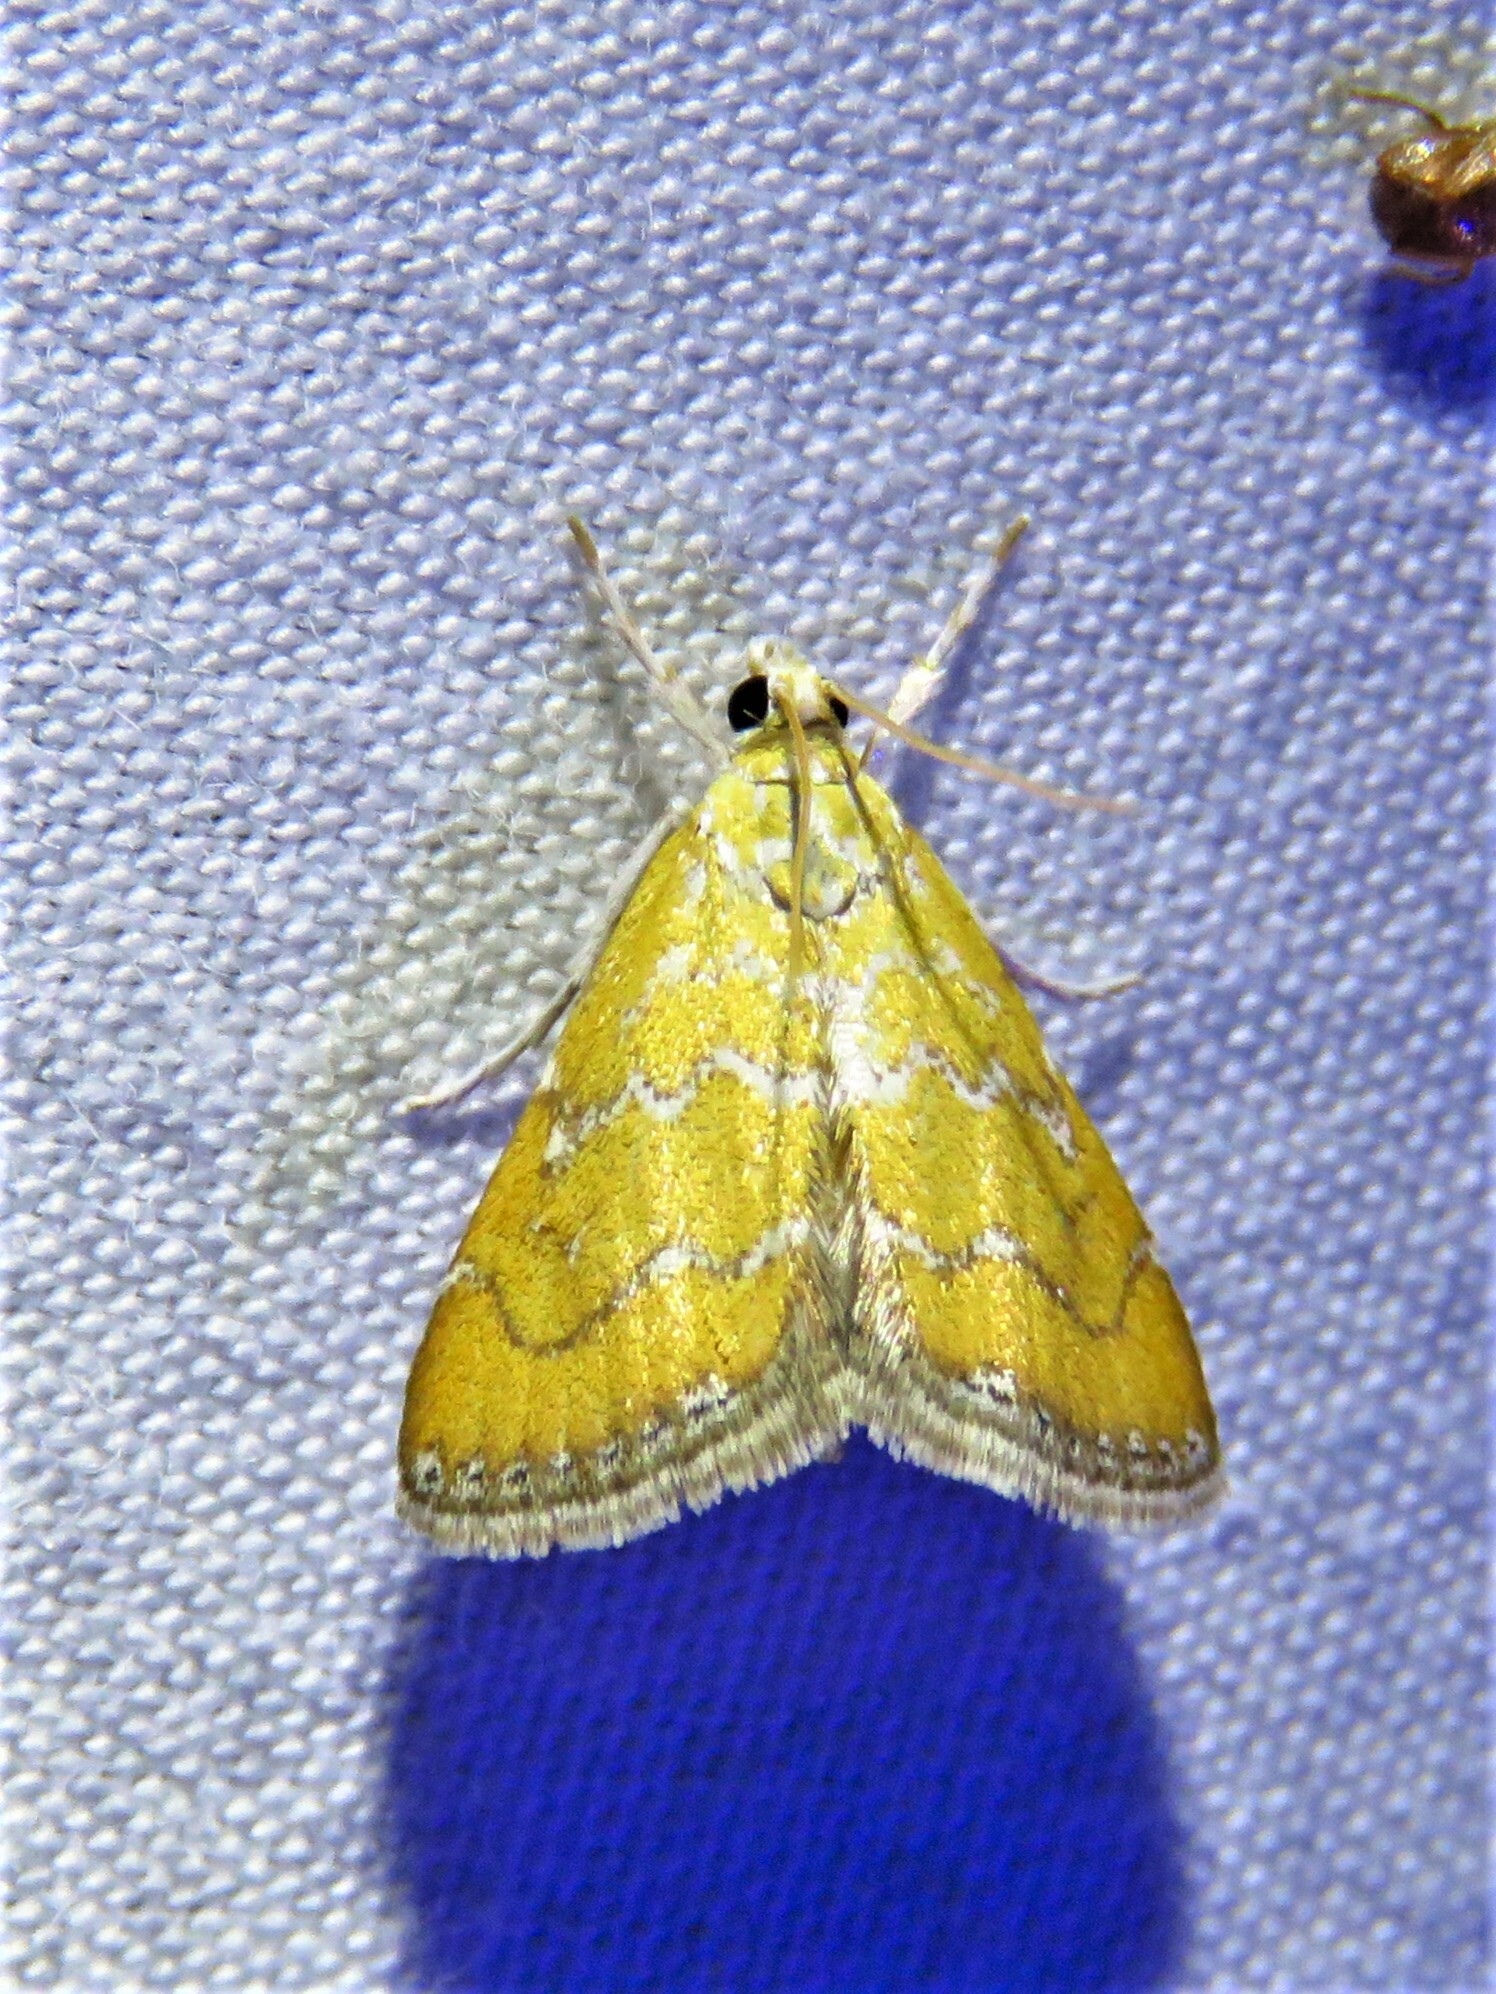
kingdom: Animalia
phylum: Arthropoda
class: Insecta
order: Lepidoptera
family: Crambidae
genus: Xanthophysa
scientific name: Xanthophysa psychicalis
